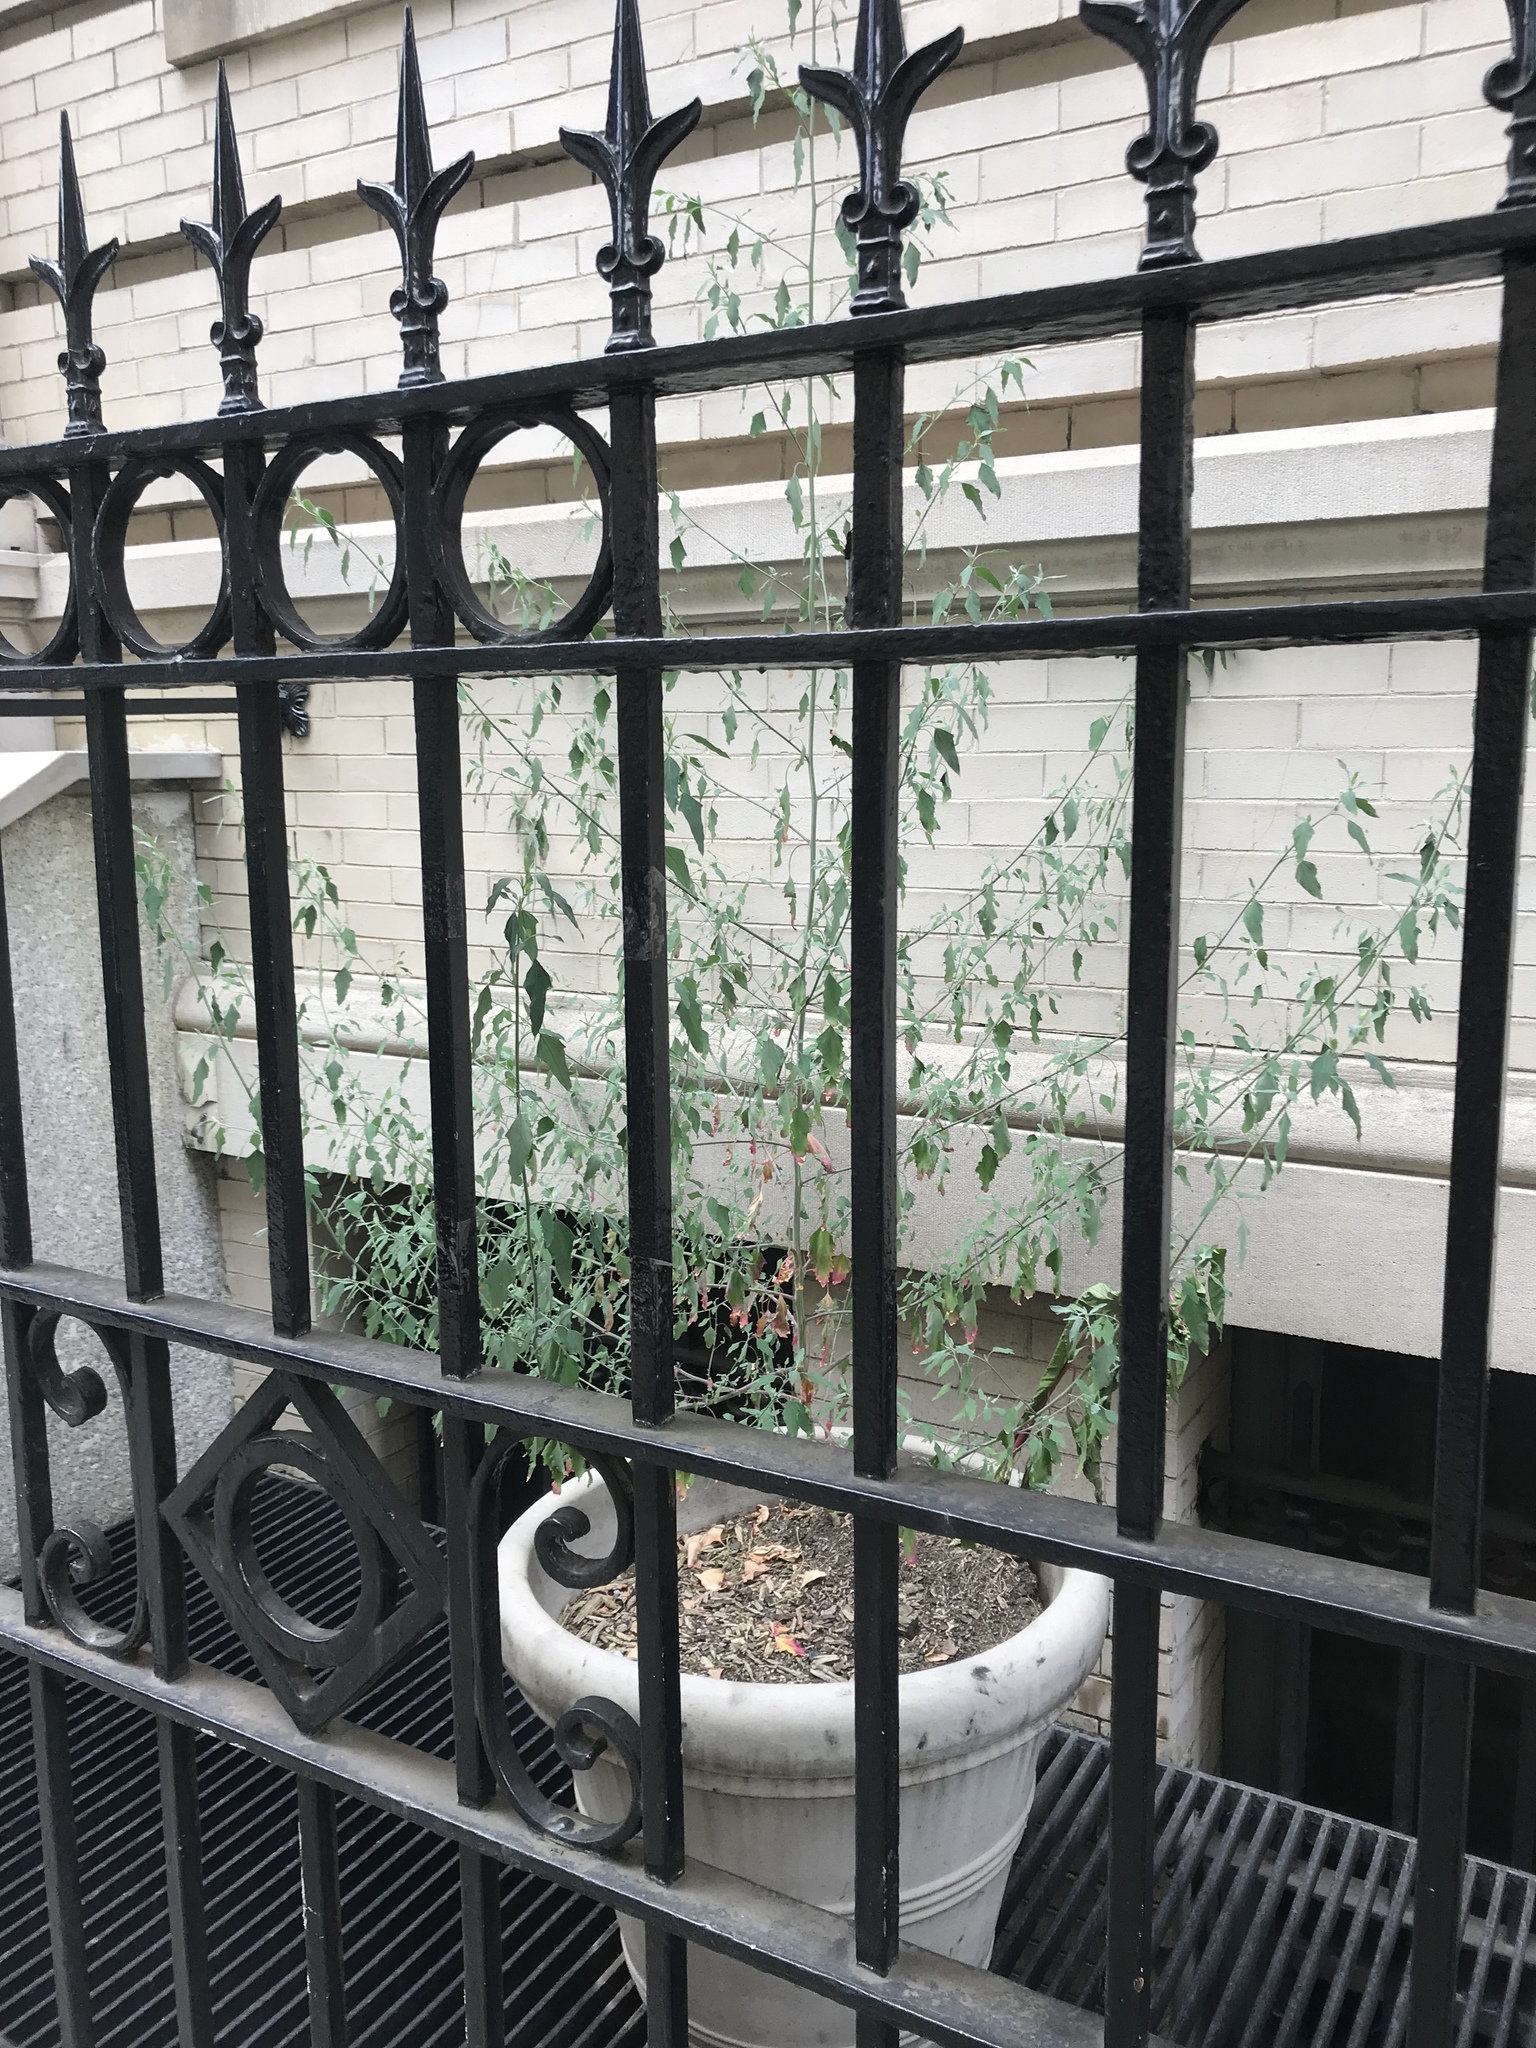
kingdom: Plantae
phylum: Tracheophyta
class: Magnoliopsida
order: Caryophyllales
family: Amaranthaceae
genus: Chenopodium
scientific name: Chenopodium album
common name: Fat-hen
